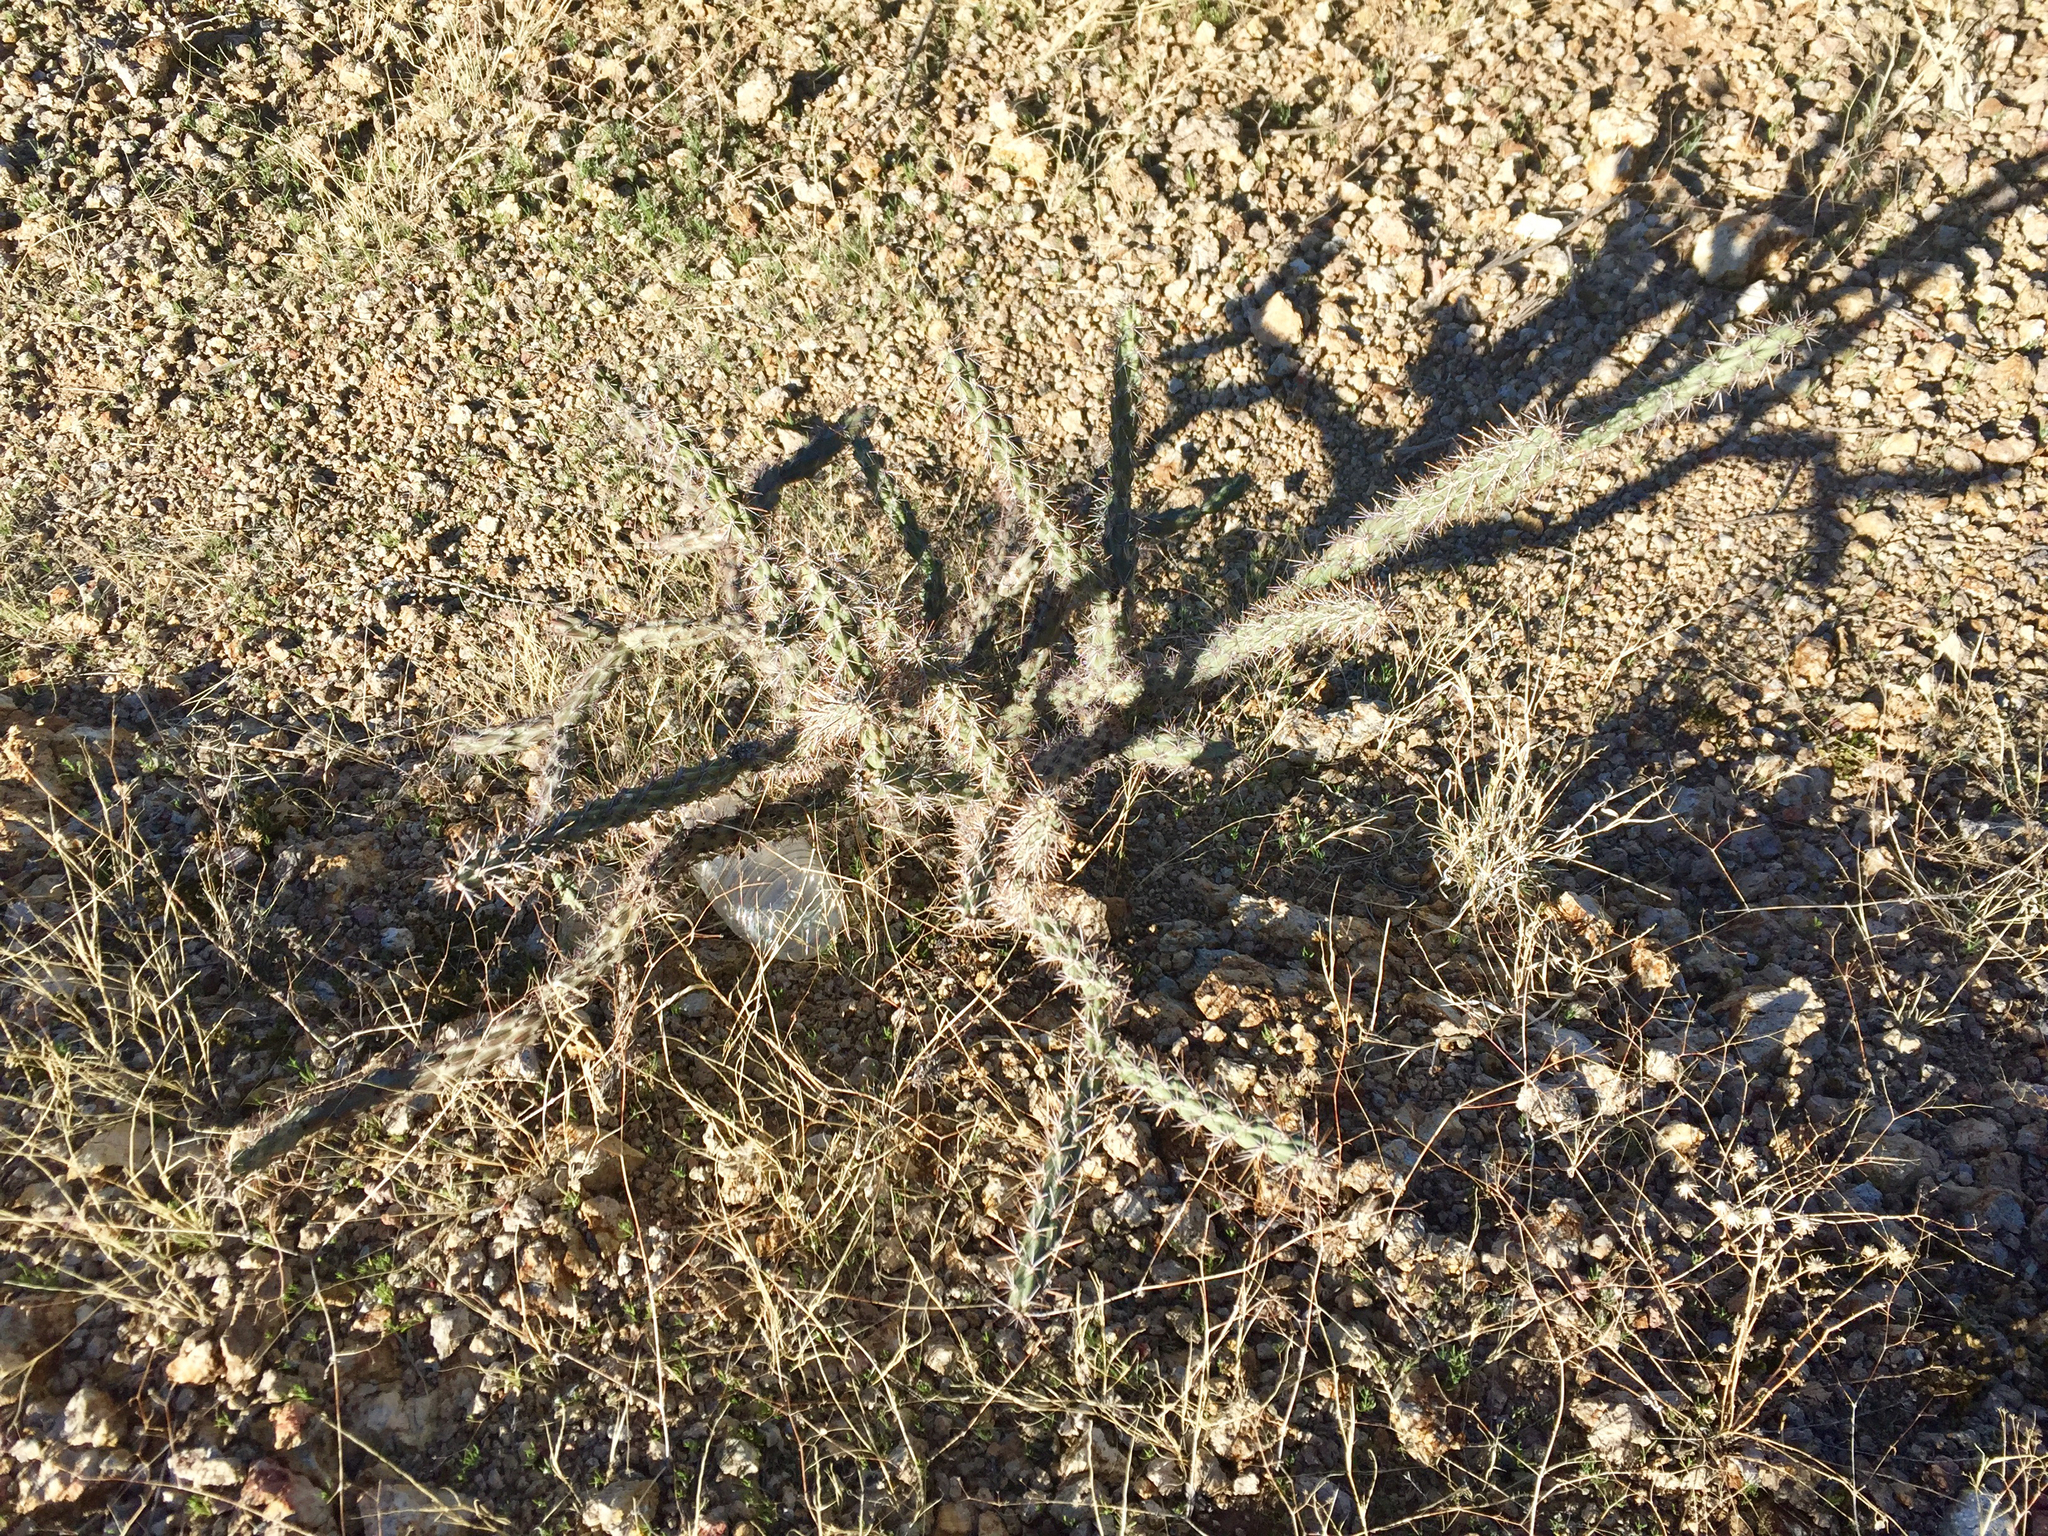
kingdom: Plantae
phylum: Tracheophyta
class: Magnoliopsida
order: Caryophyllales
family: Cactaceae
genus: Cylindropuntia
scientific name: Cylindropuntia acanthocarpa
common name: Buckhorn cholla
